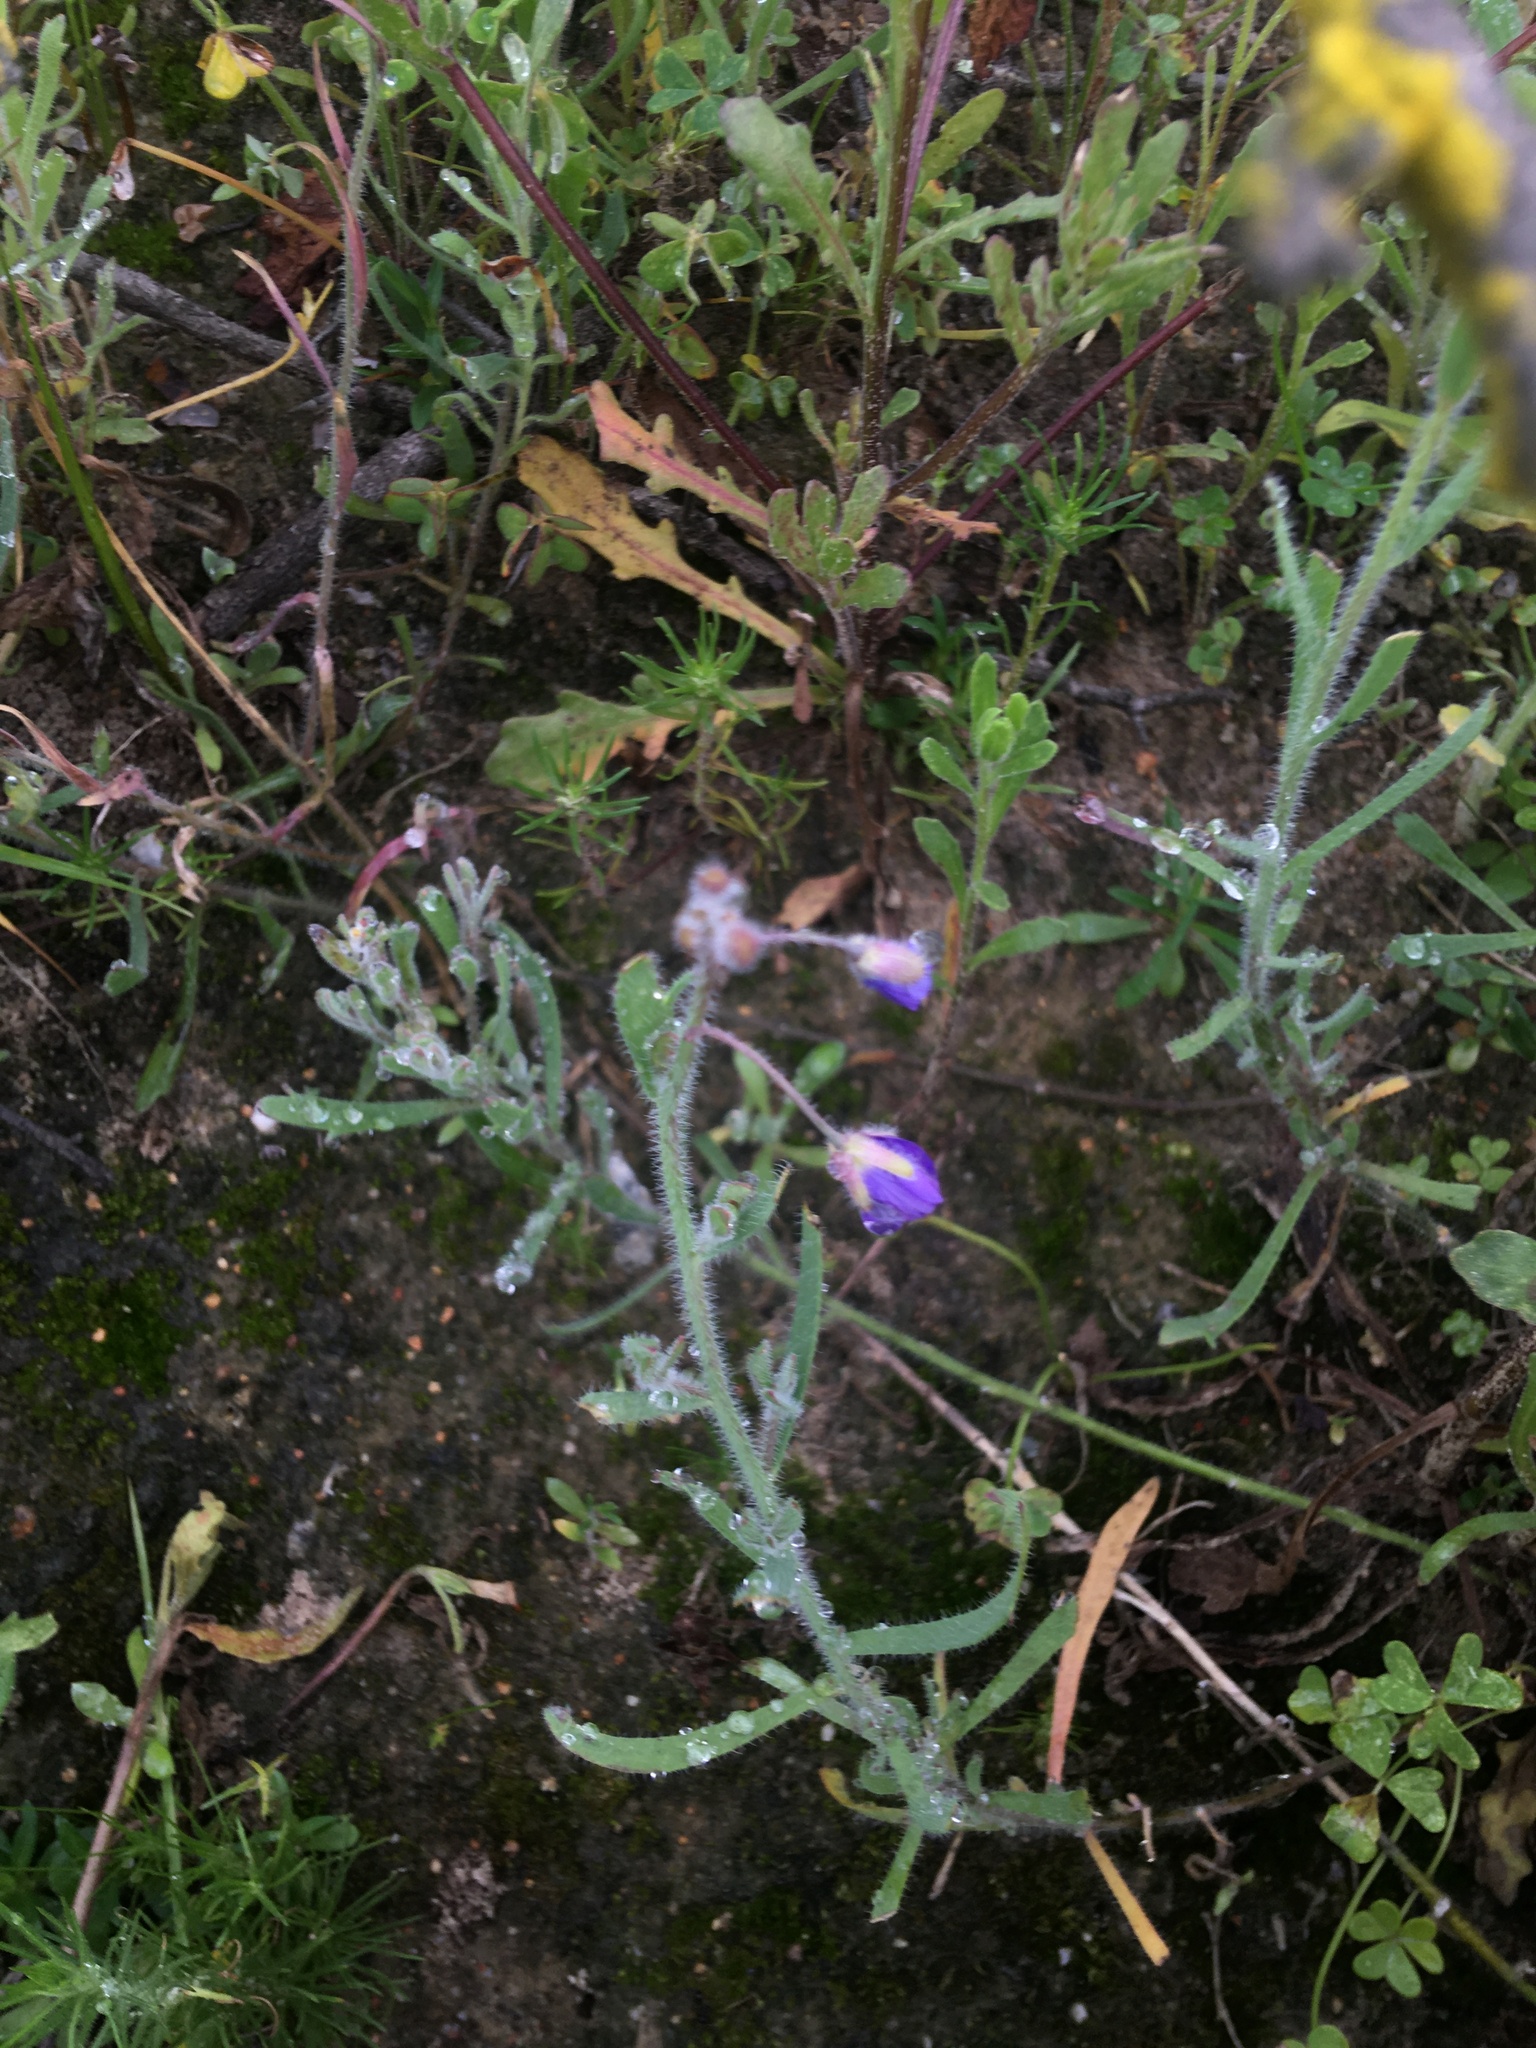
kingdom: Plantae
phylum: Tracheophyta
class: Magnoliopsida
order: Brassicales
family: Brassicaceae
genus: Heliophila
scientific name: Heliophila africana
